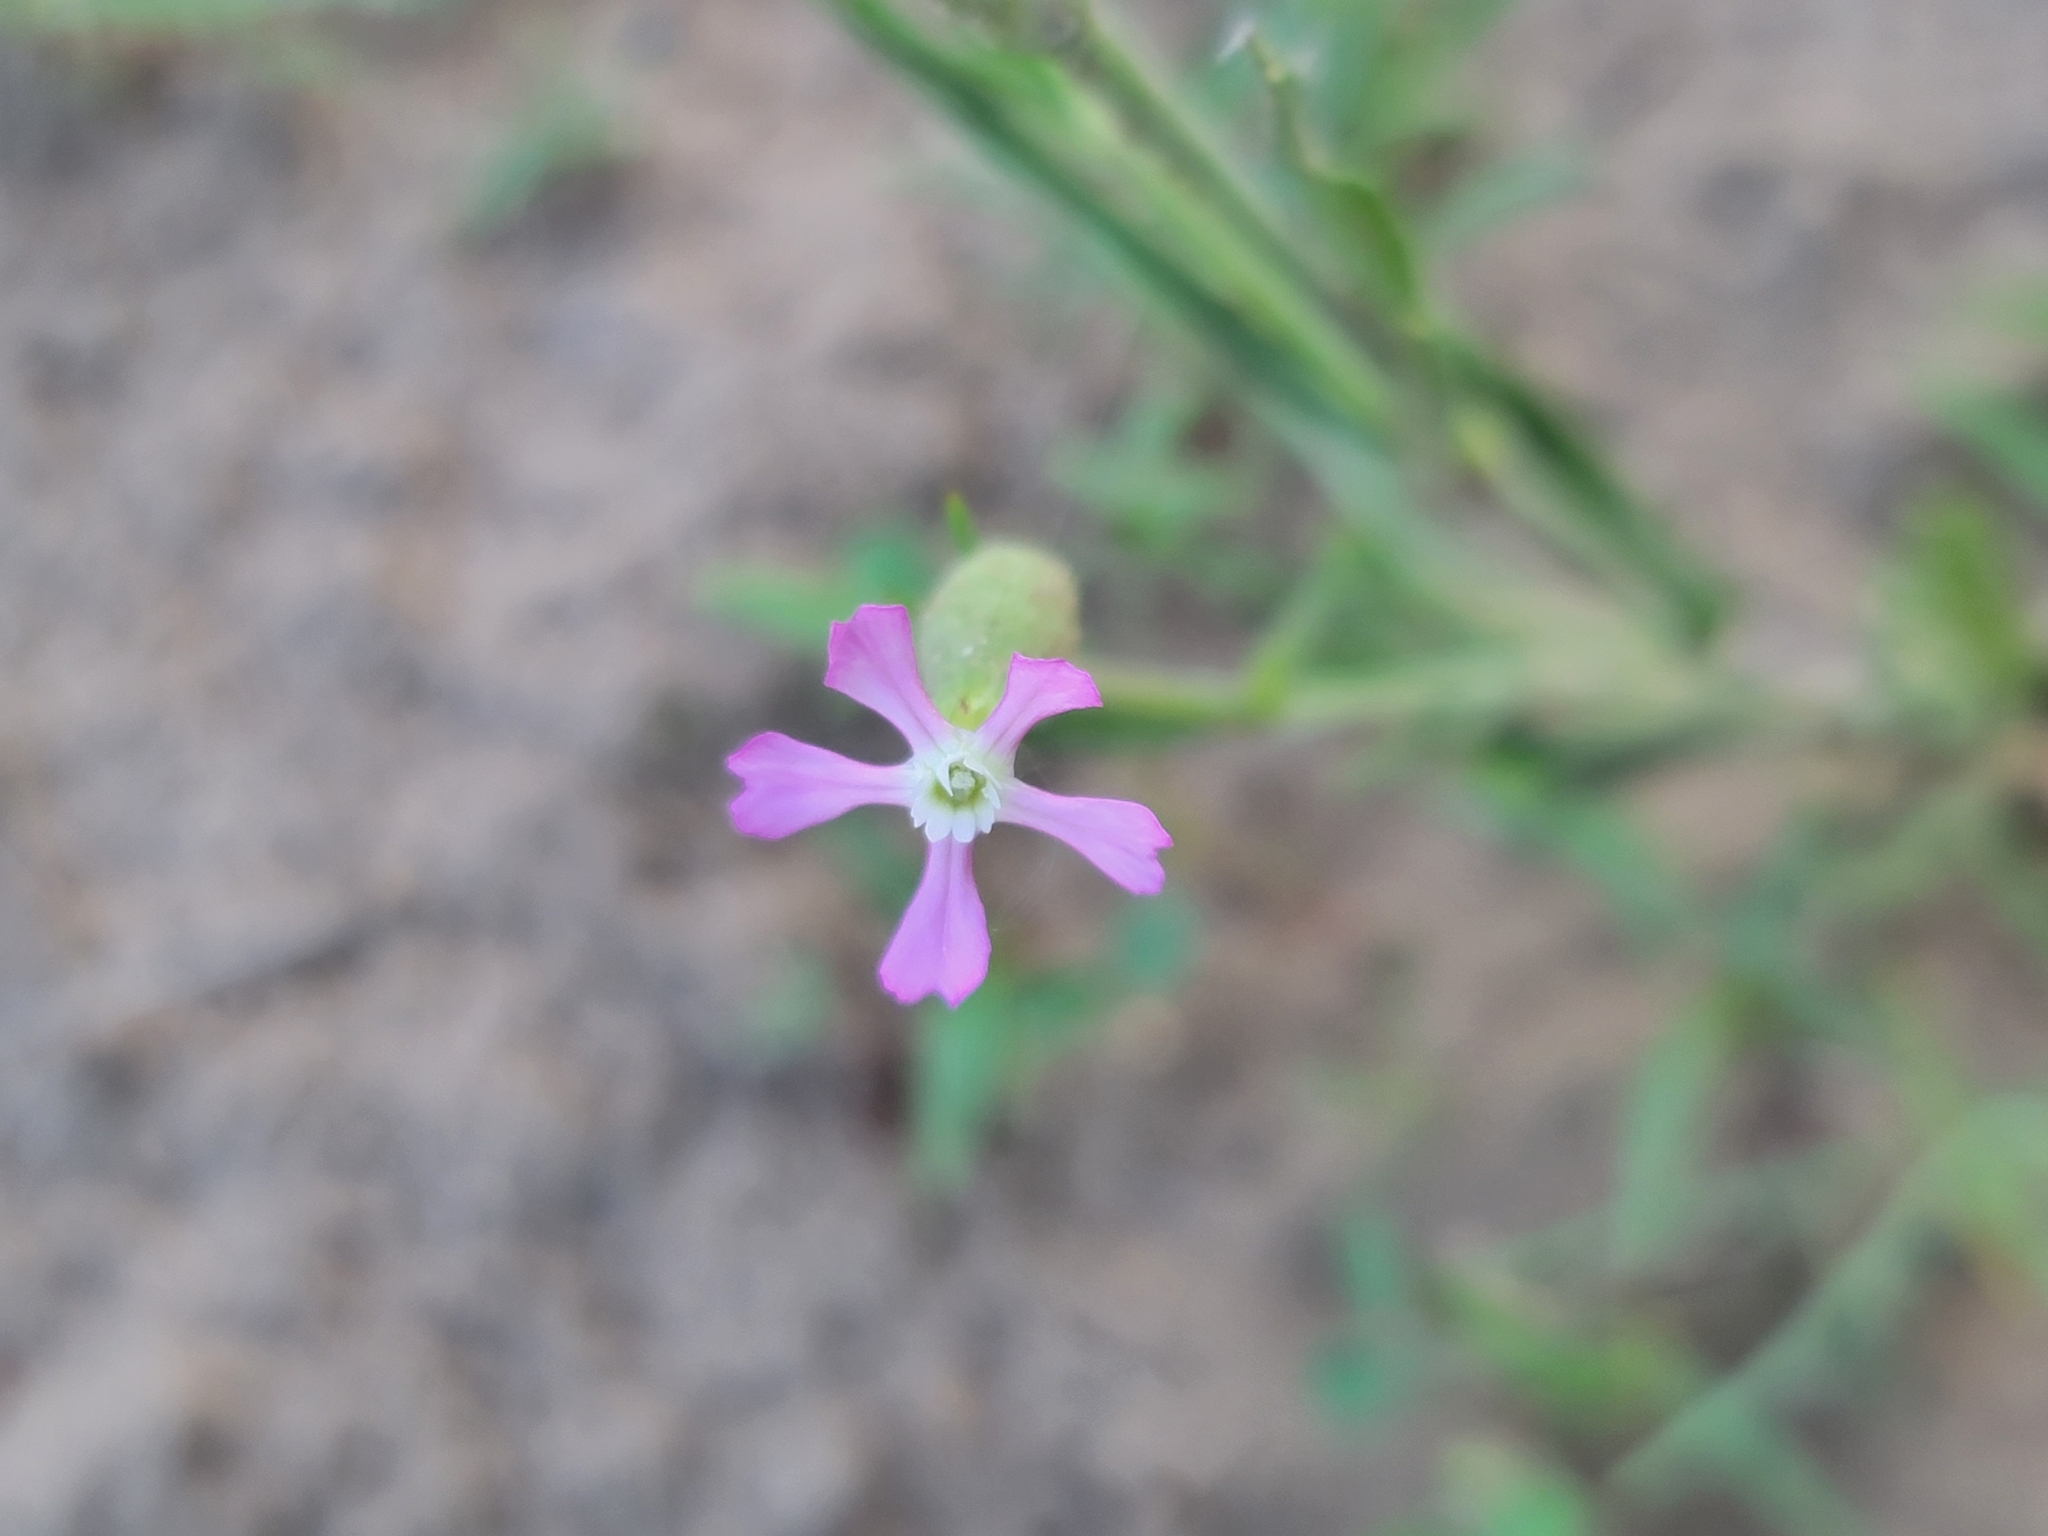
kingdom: Plantae
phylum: Tracheophyta
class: Magnoliopsida
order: Caryophyllales
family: Caryophyllaceae
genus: Silene
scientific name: Silene conica
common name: Sand catchfly
